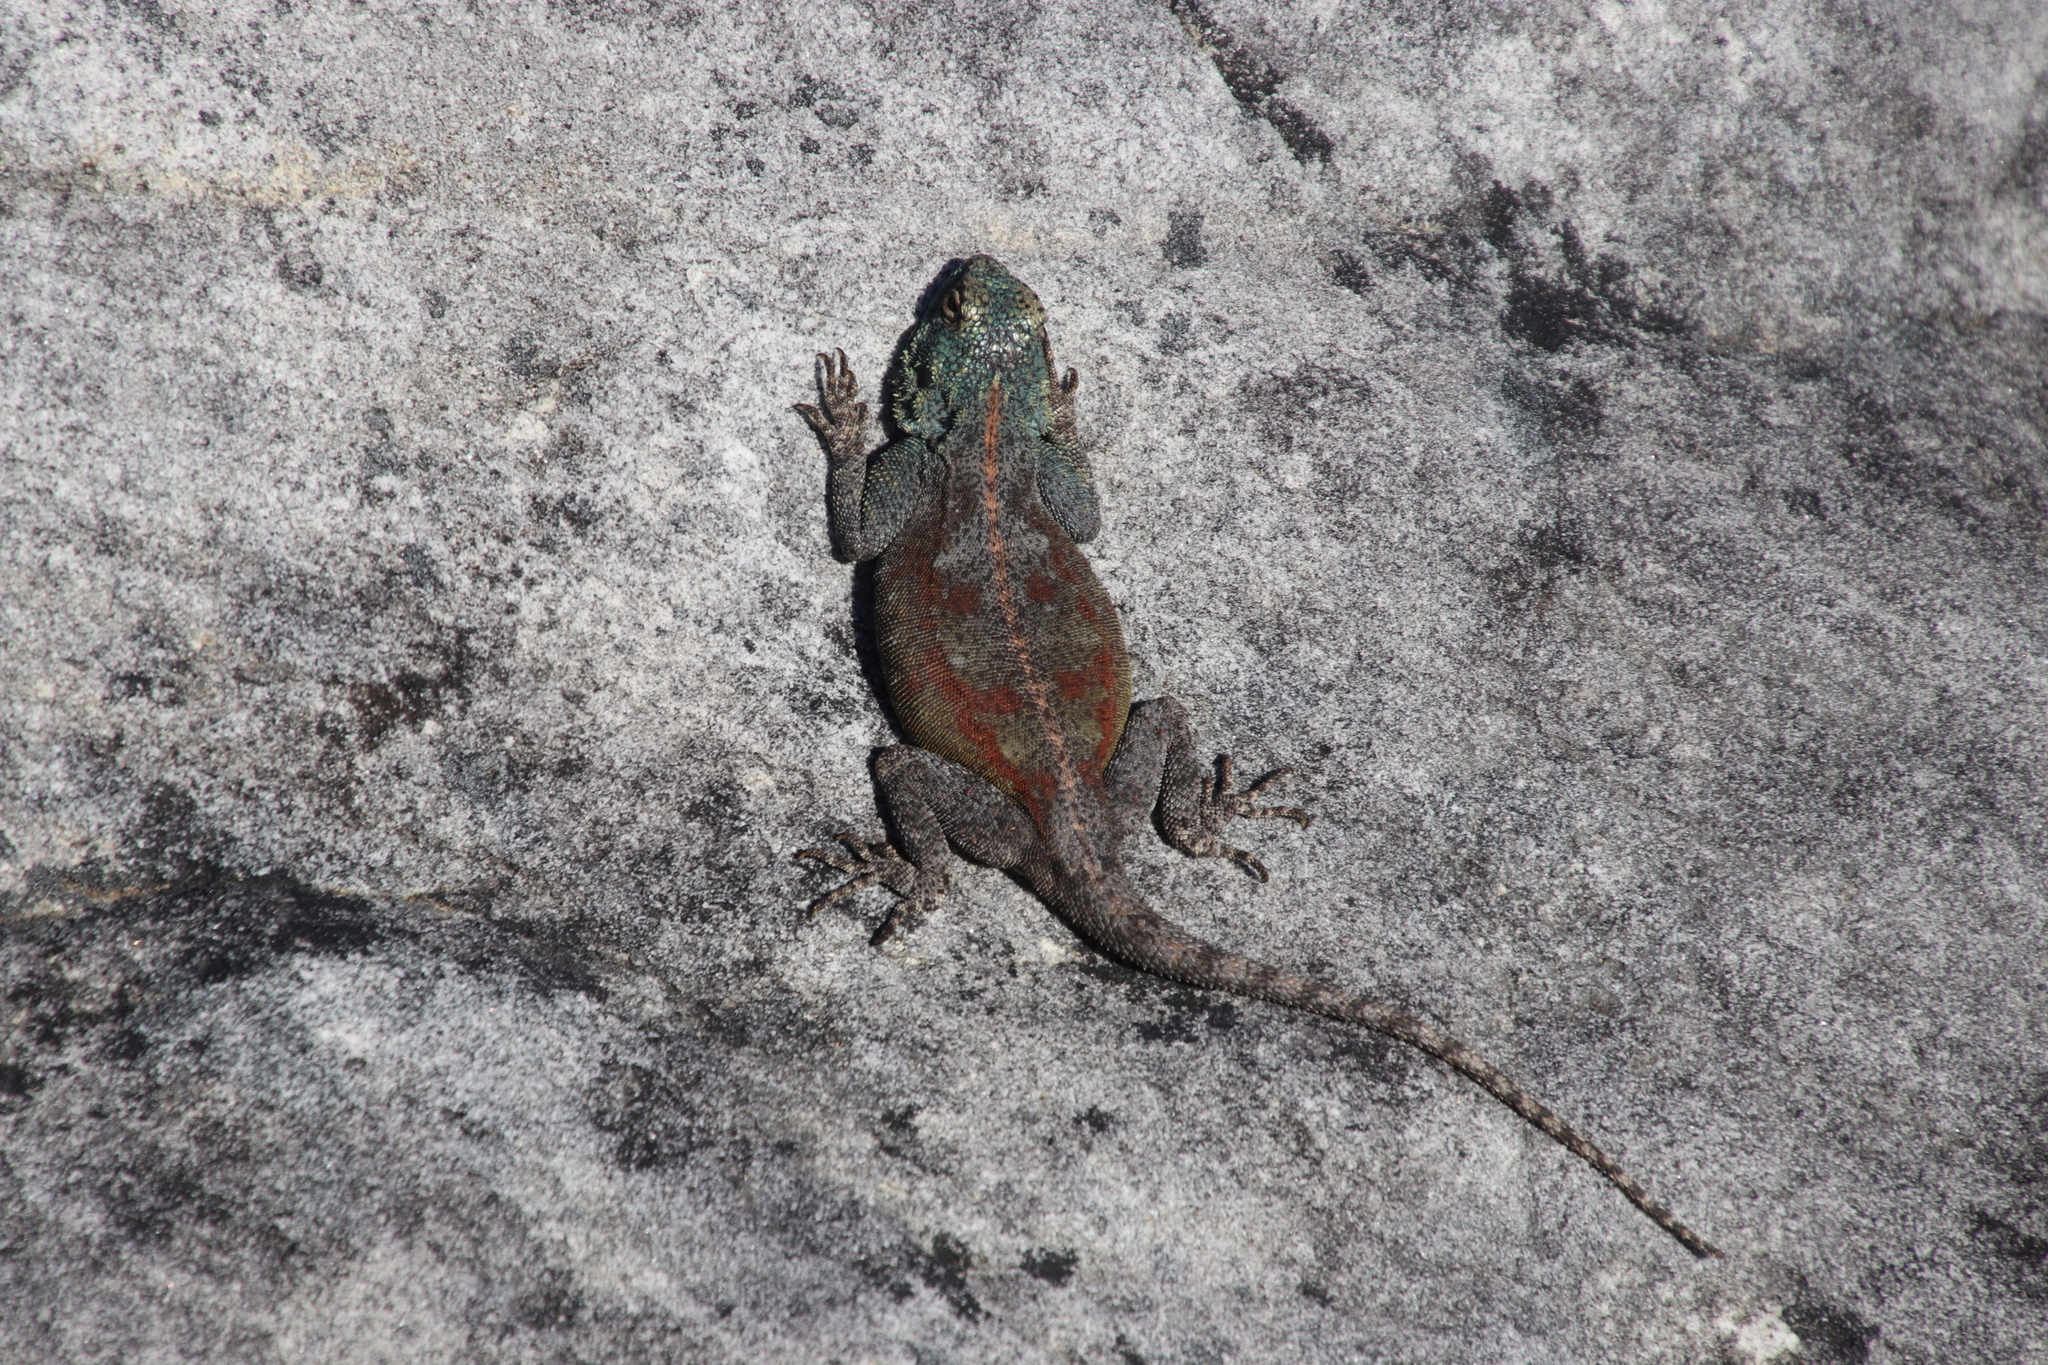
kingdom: Animalia
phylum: Chordata
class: Squamata
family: Agamidae
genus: Agama
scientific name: Agama atra
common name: Southern african rock agama
